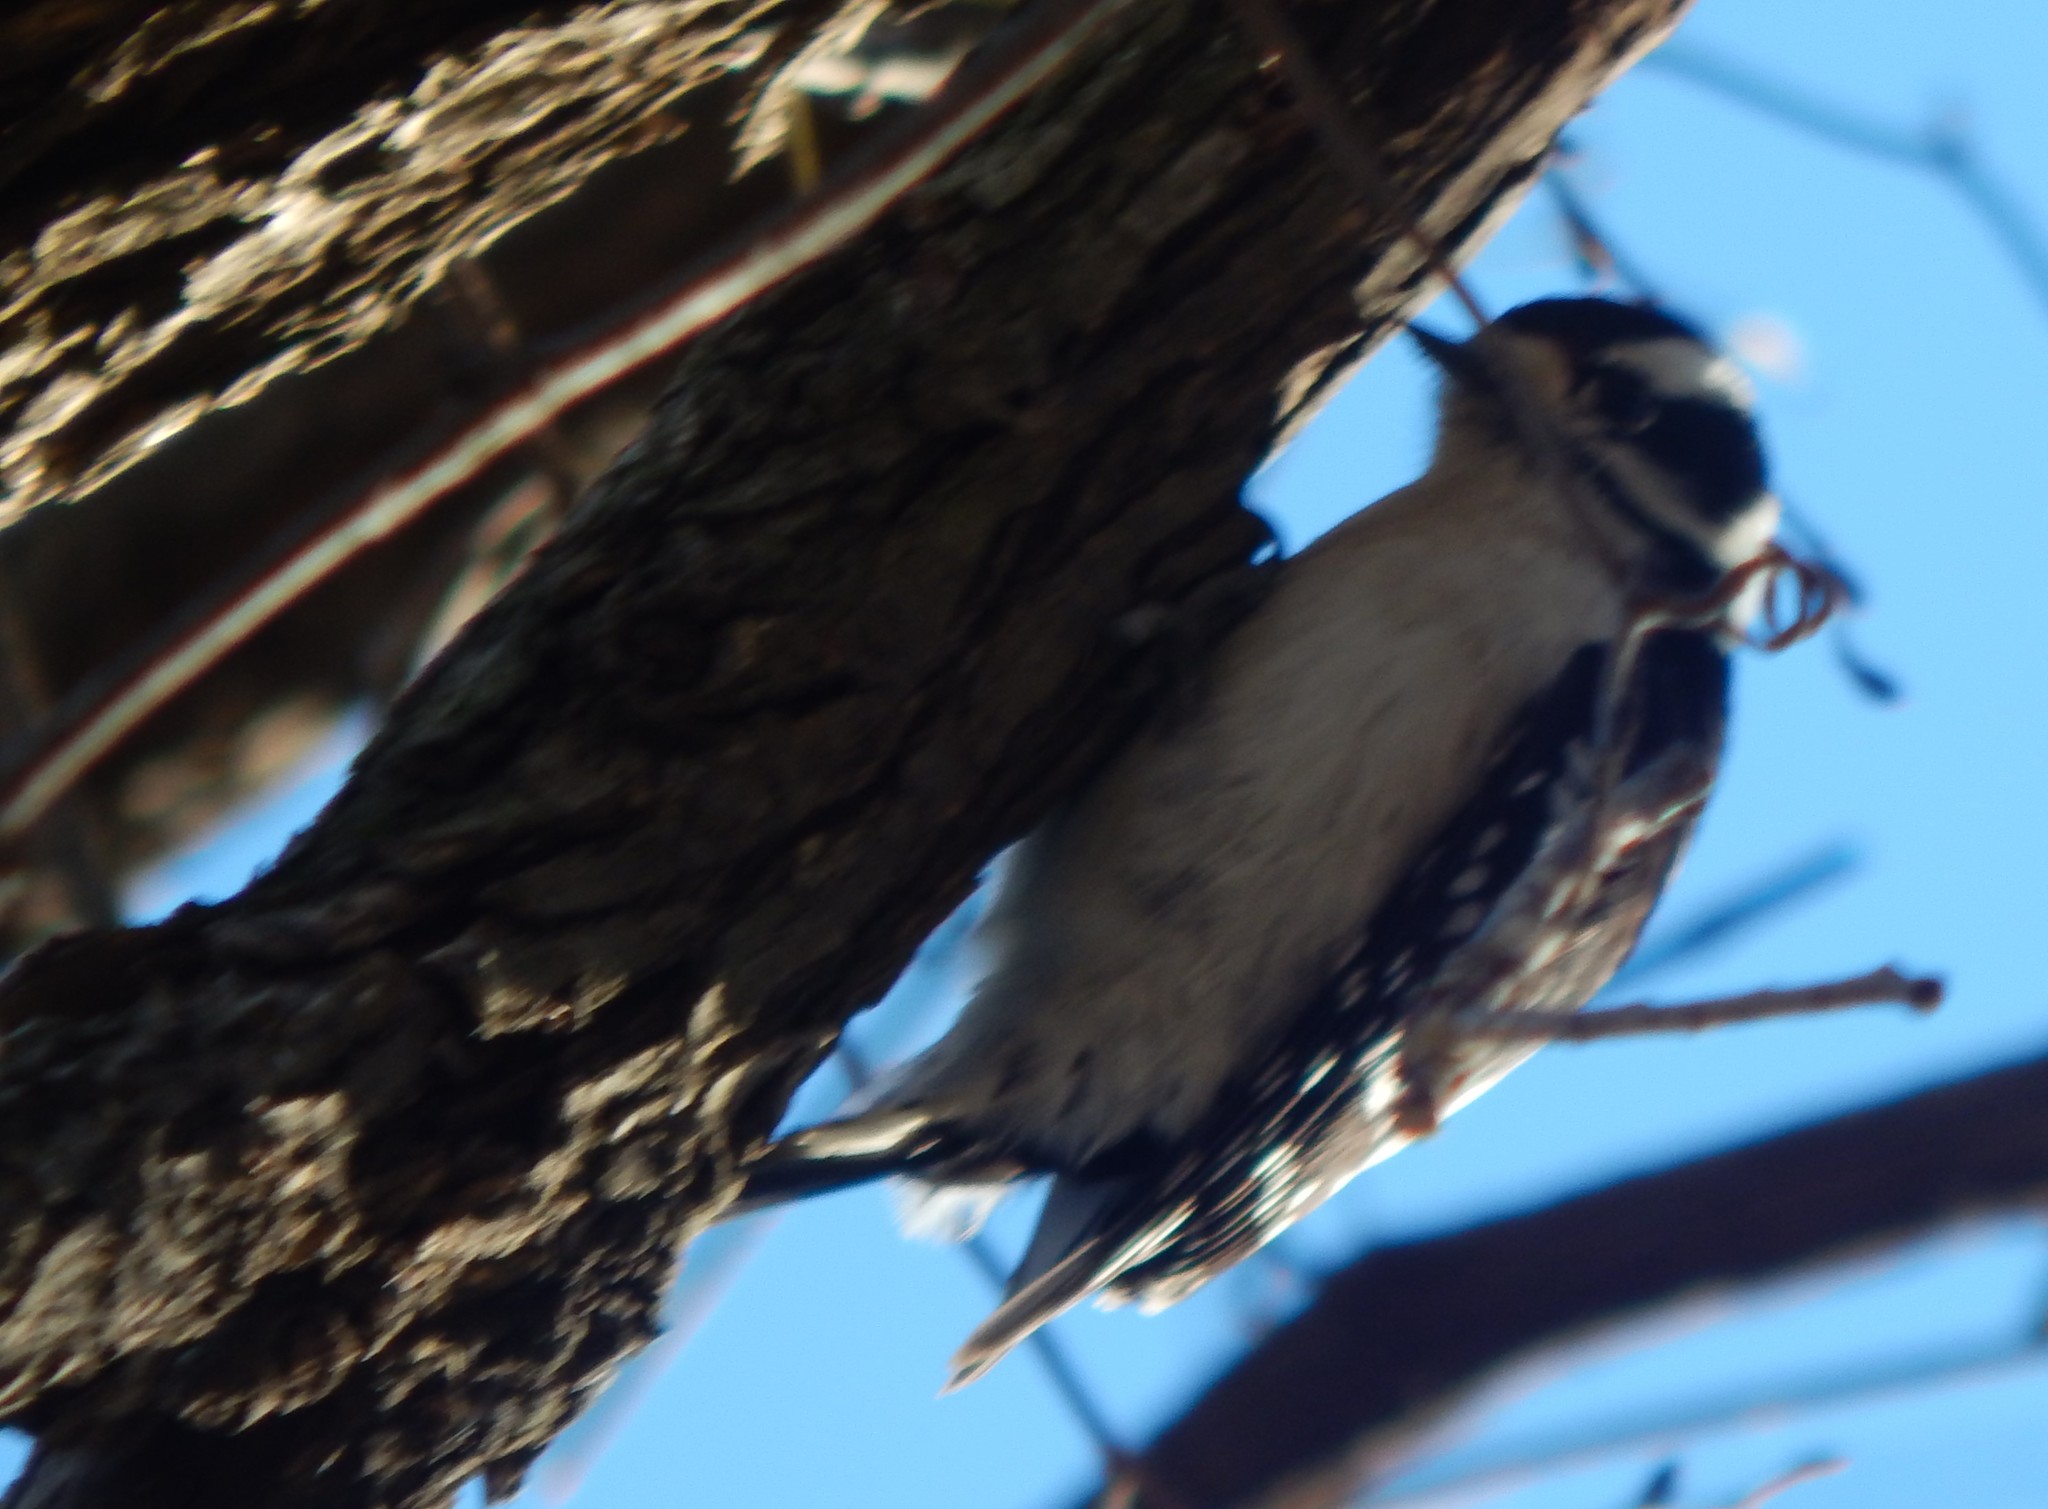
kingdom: Animalia
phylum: Chordata
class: Aves
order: Piciformes
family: Picidae
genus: Dryobates
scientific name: Dryobates pubescens
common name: Downy woodpecker
